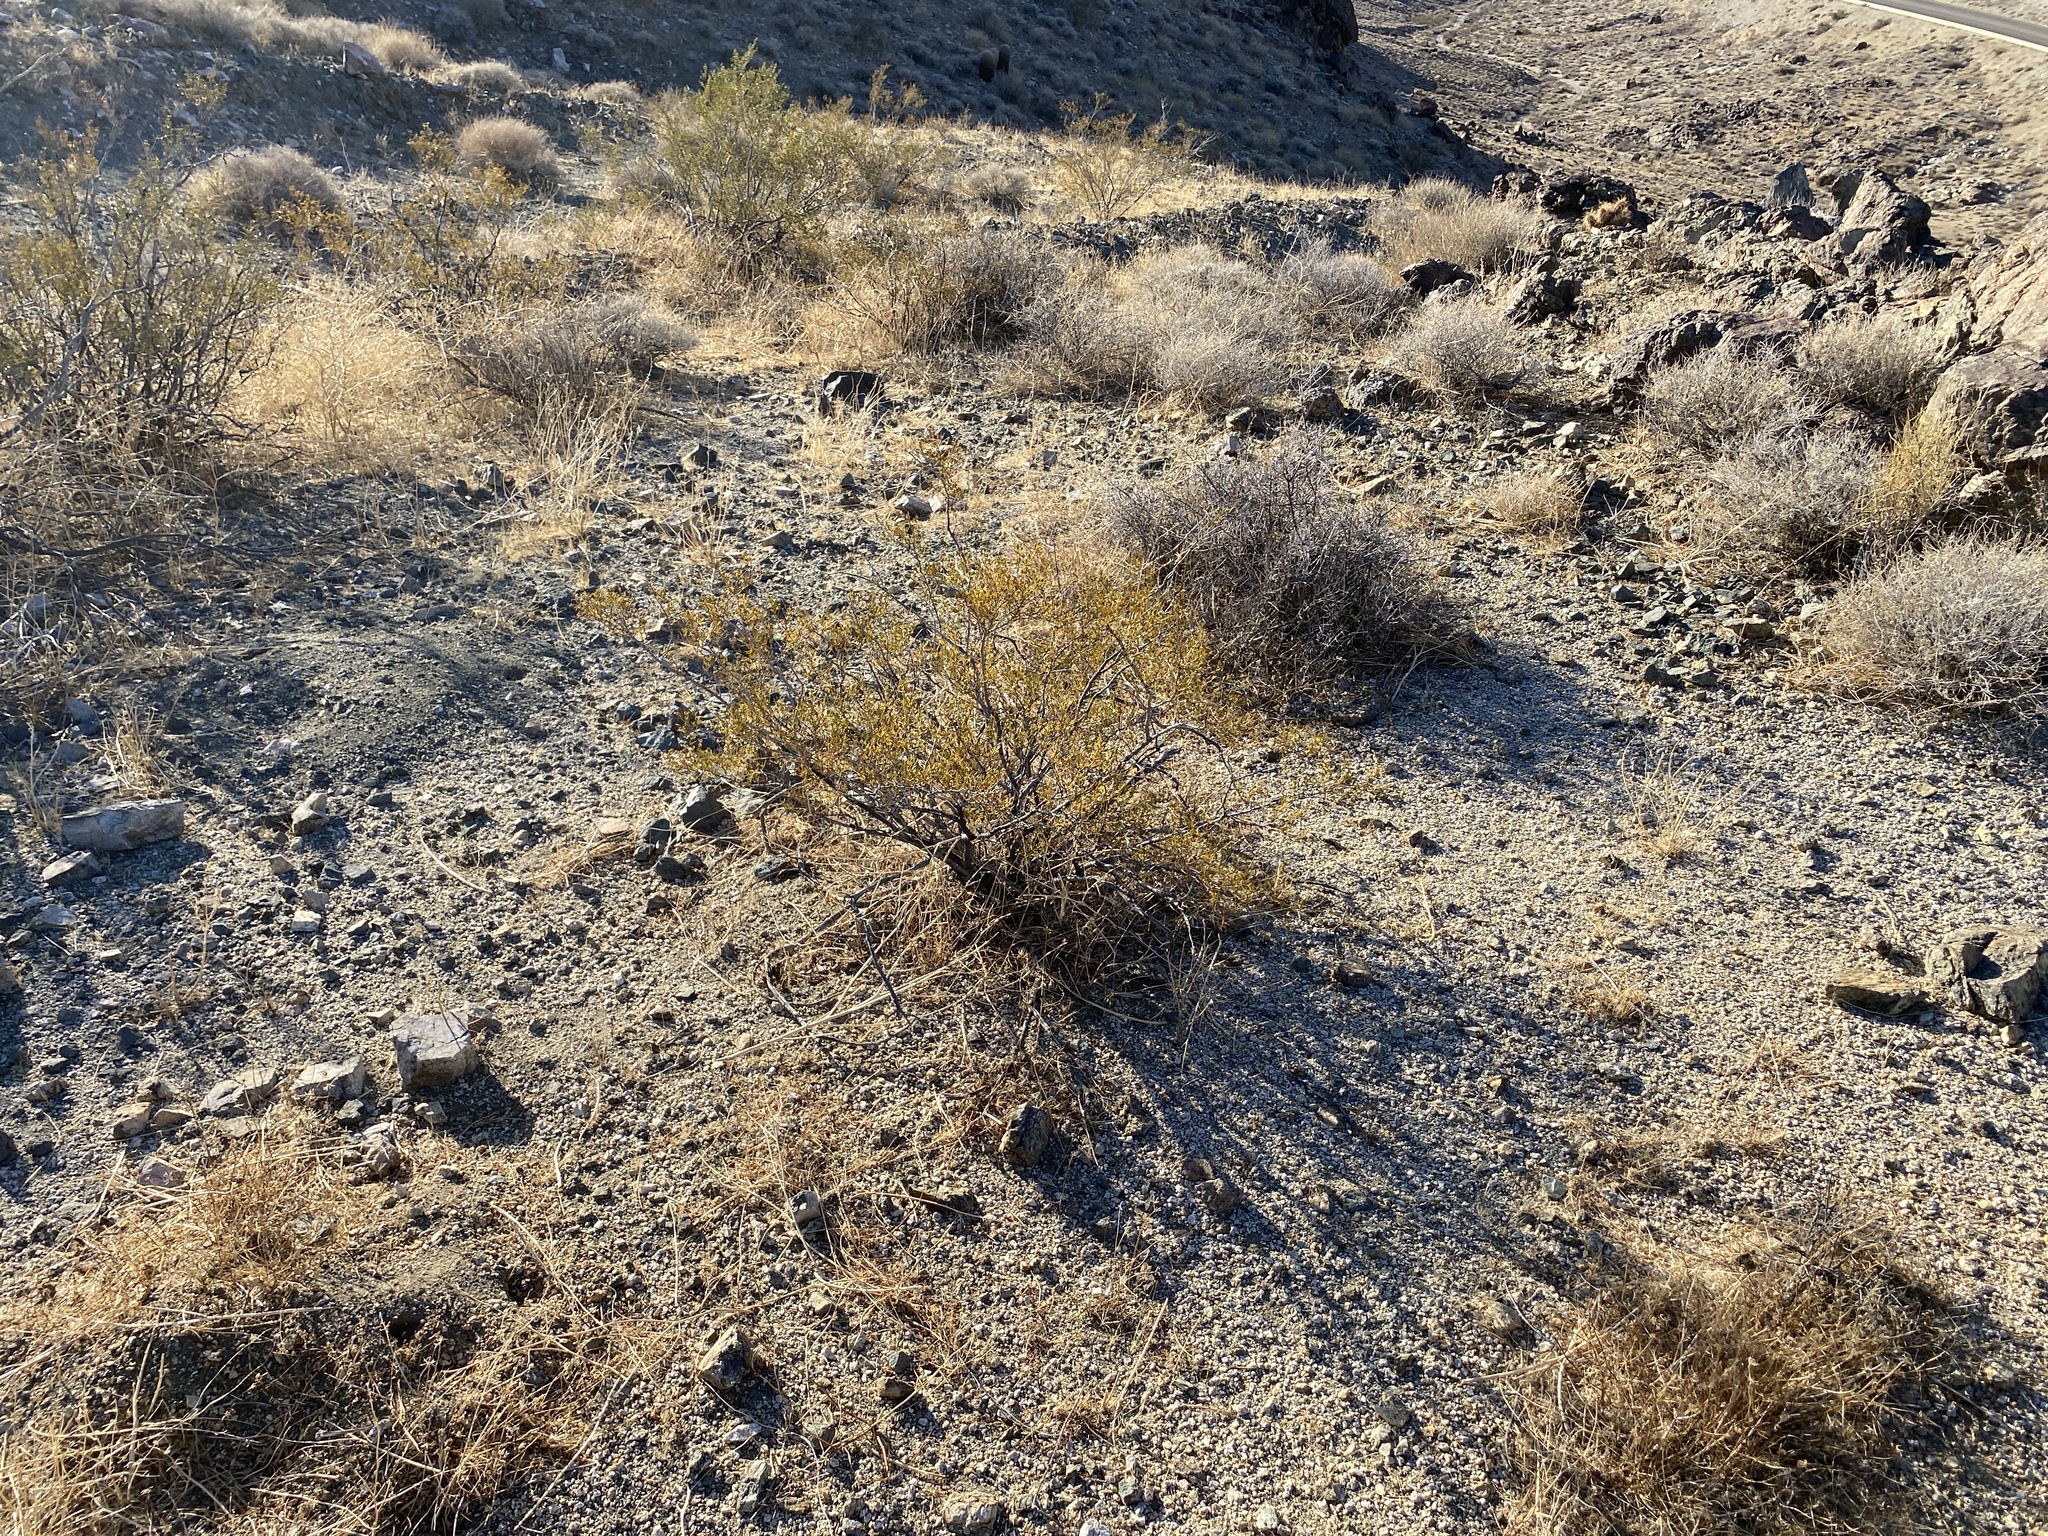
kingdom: Plantae
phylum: Tracheophyta
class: Magnoliopsida
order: Zygophyllales
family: Zygophyllaceae
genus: Larrea
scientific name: Larrea tridentata
